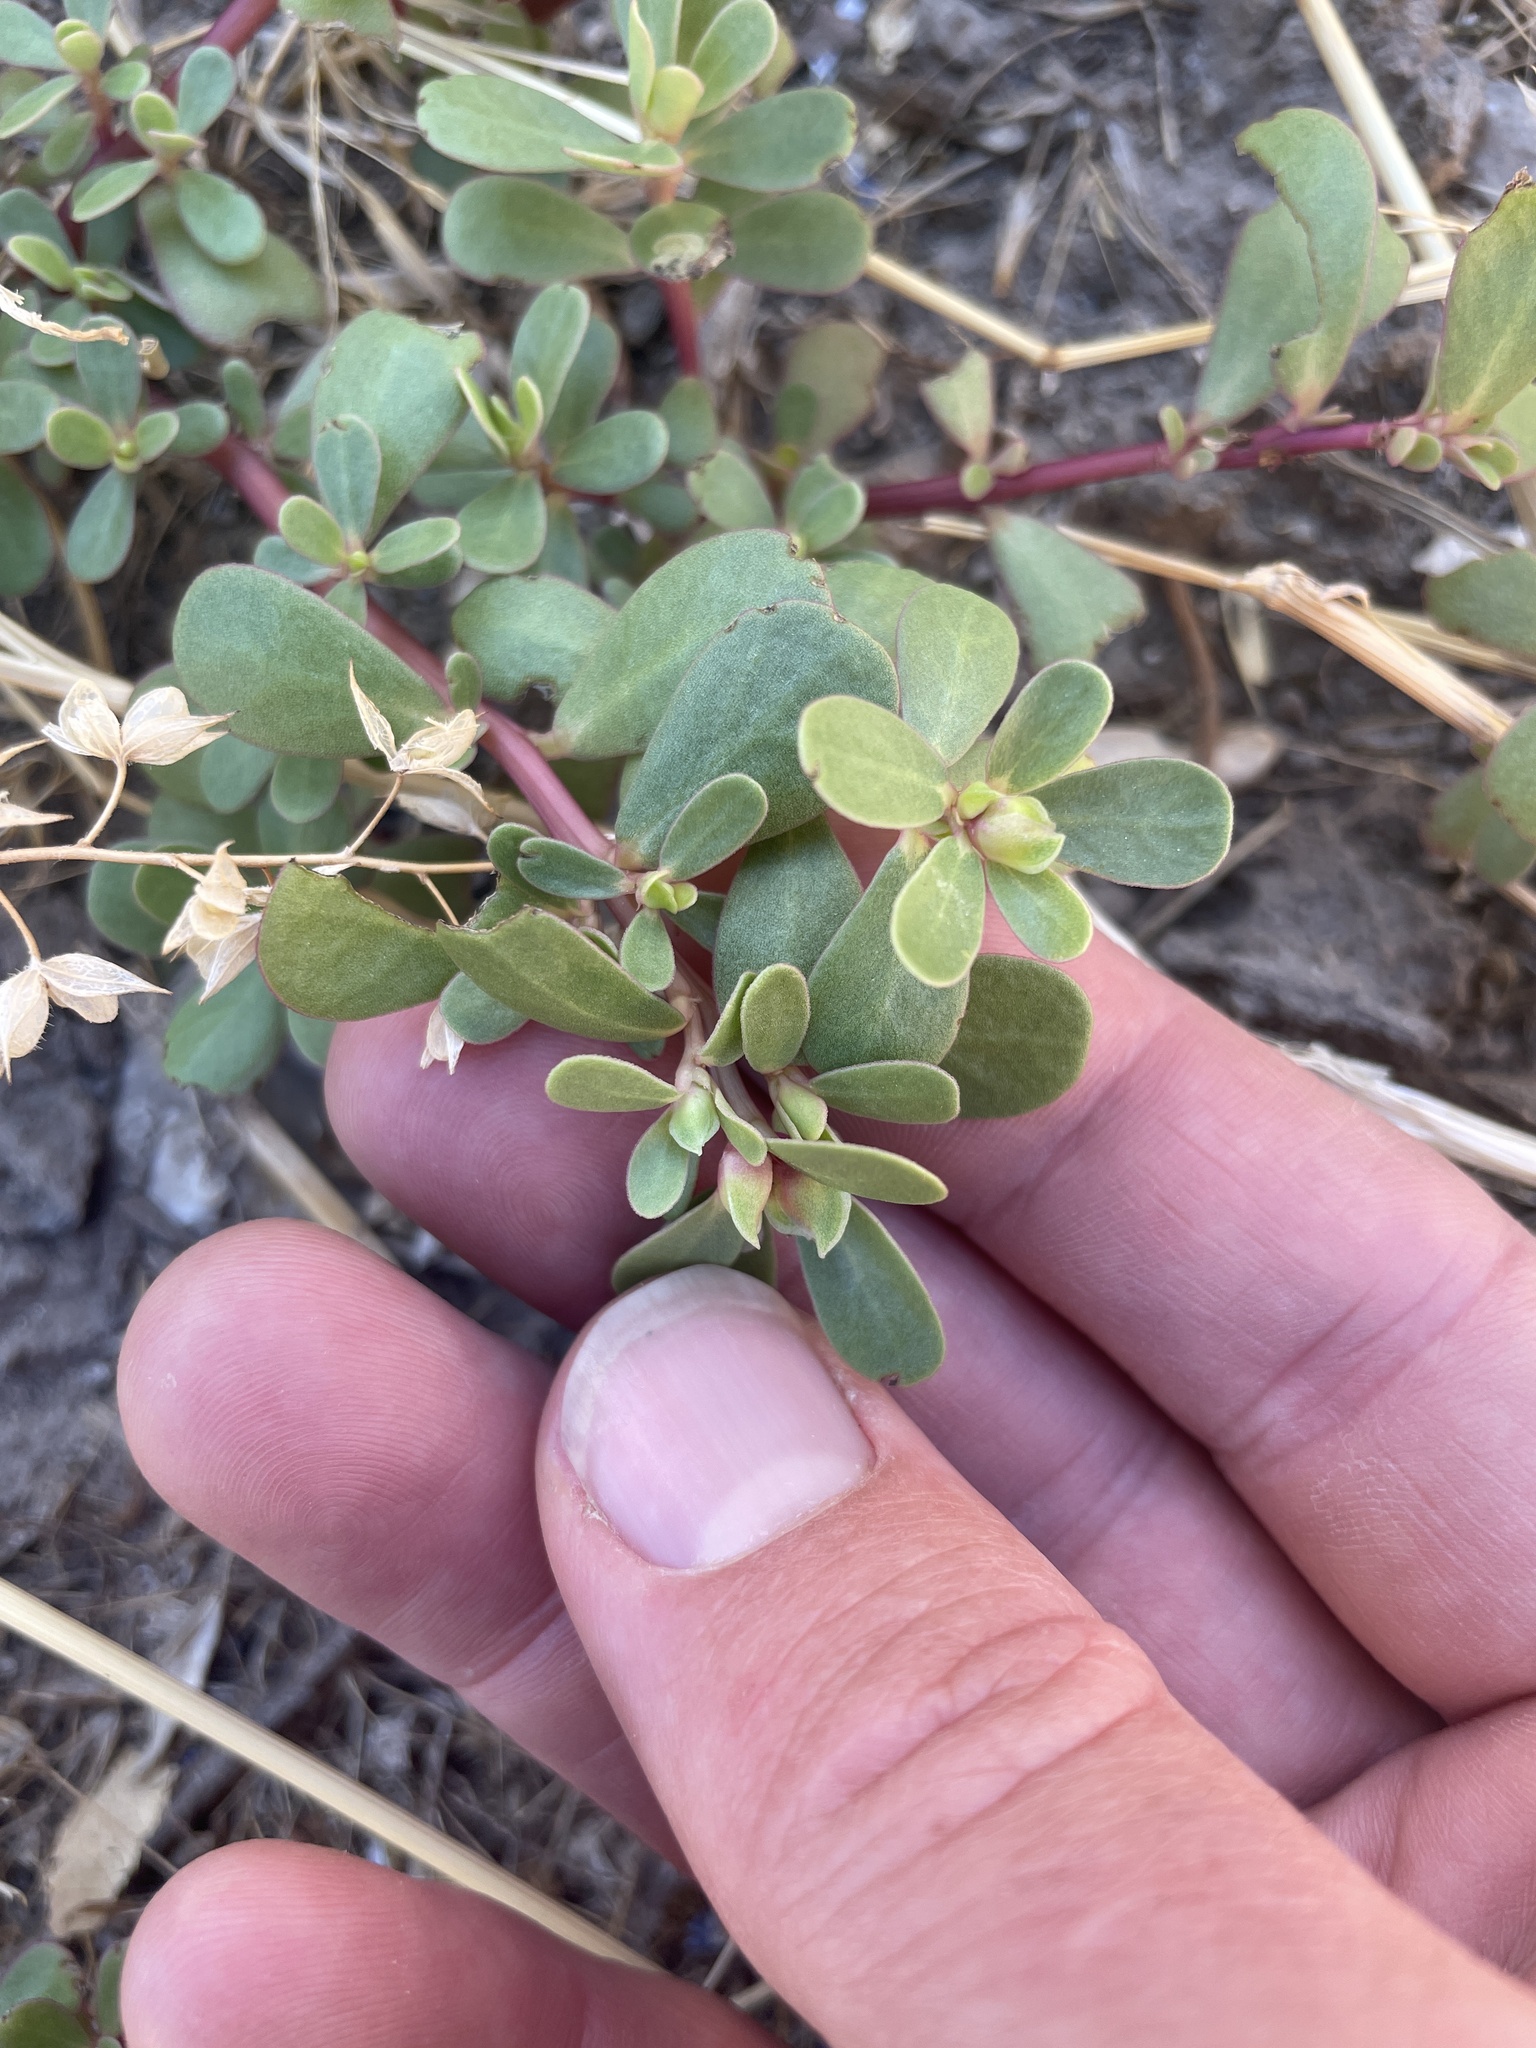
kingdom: Plantae
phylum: Tracheophyta
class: Magnoliopsida
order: Caryophyllales
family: Portulacaceae
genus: Portulaca
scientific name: Portulaca oleracea
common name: Common purslane
